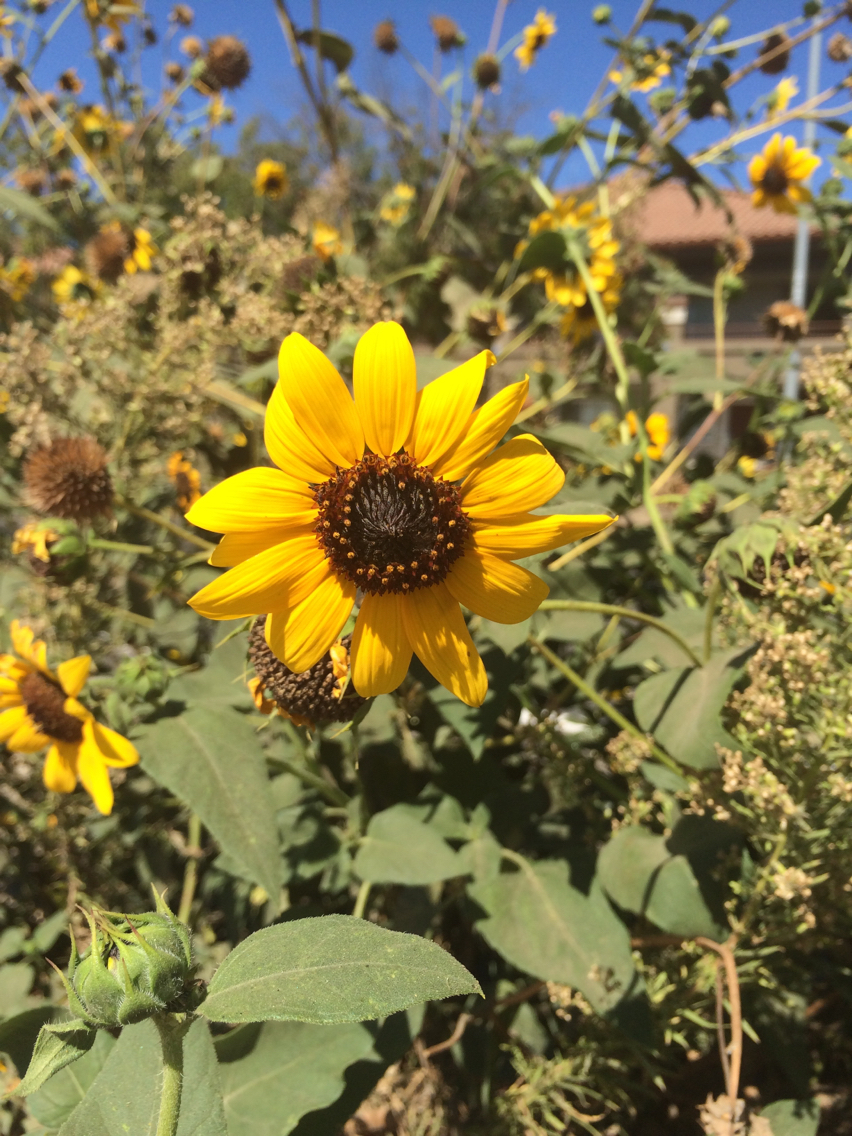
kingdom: Plantae
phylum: Tracheophyta
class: Magnoliopsida
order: Asterales
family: Asteraceae
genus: Helianthus
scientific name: Helianthus annuus
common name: Sunflower
